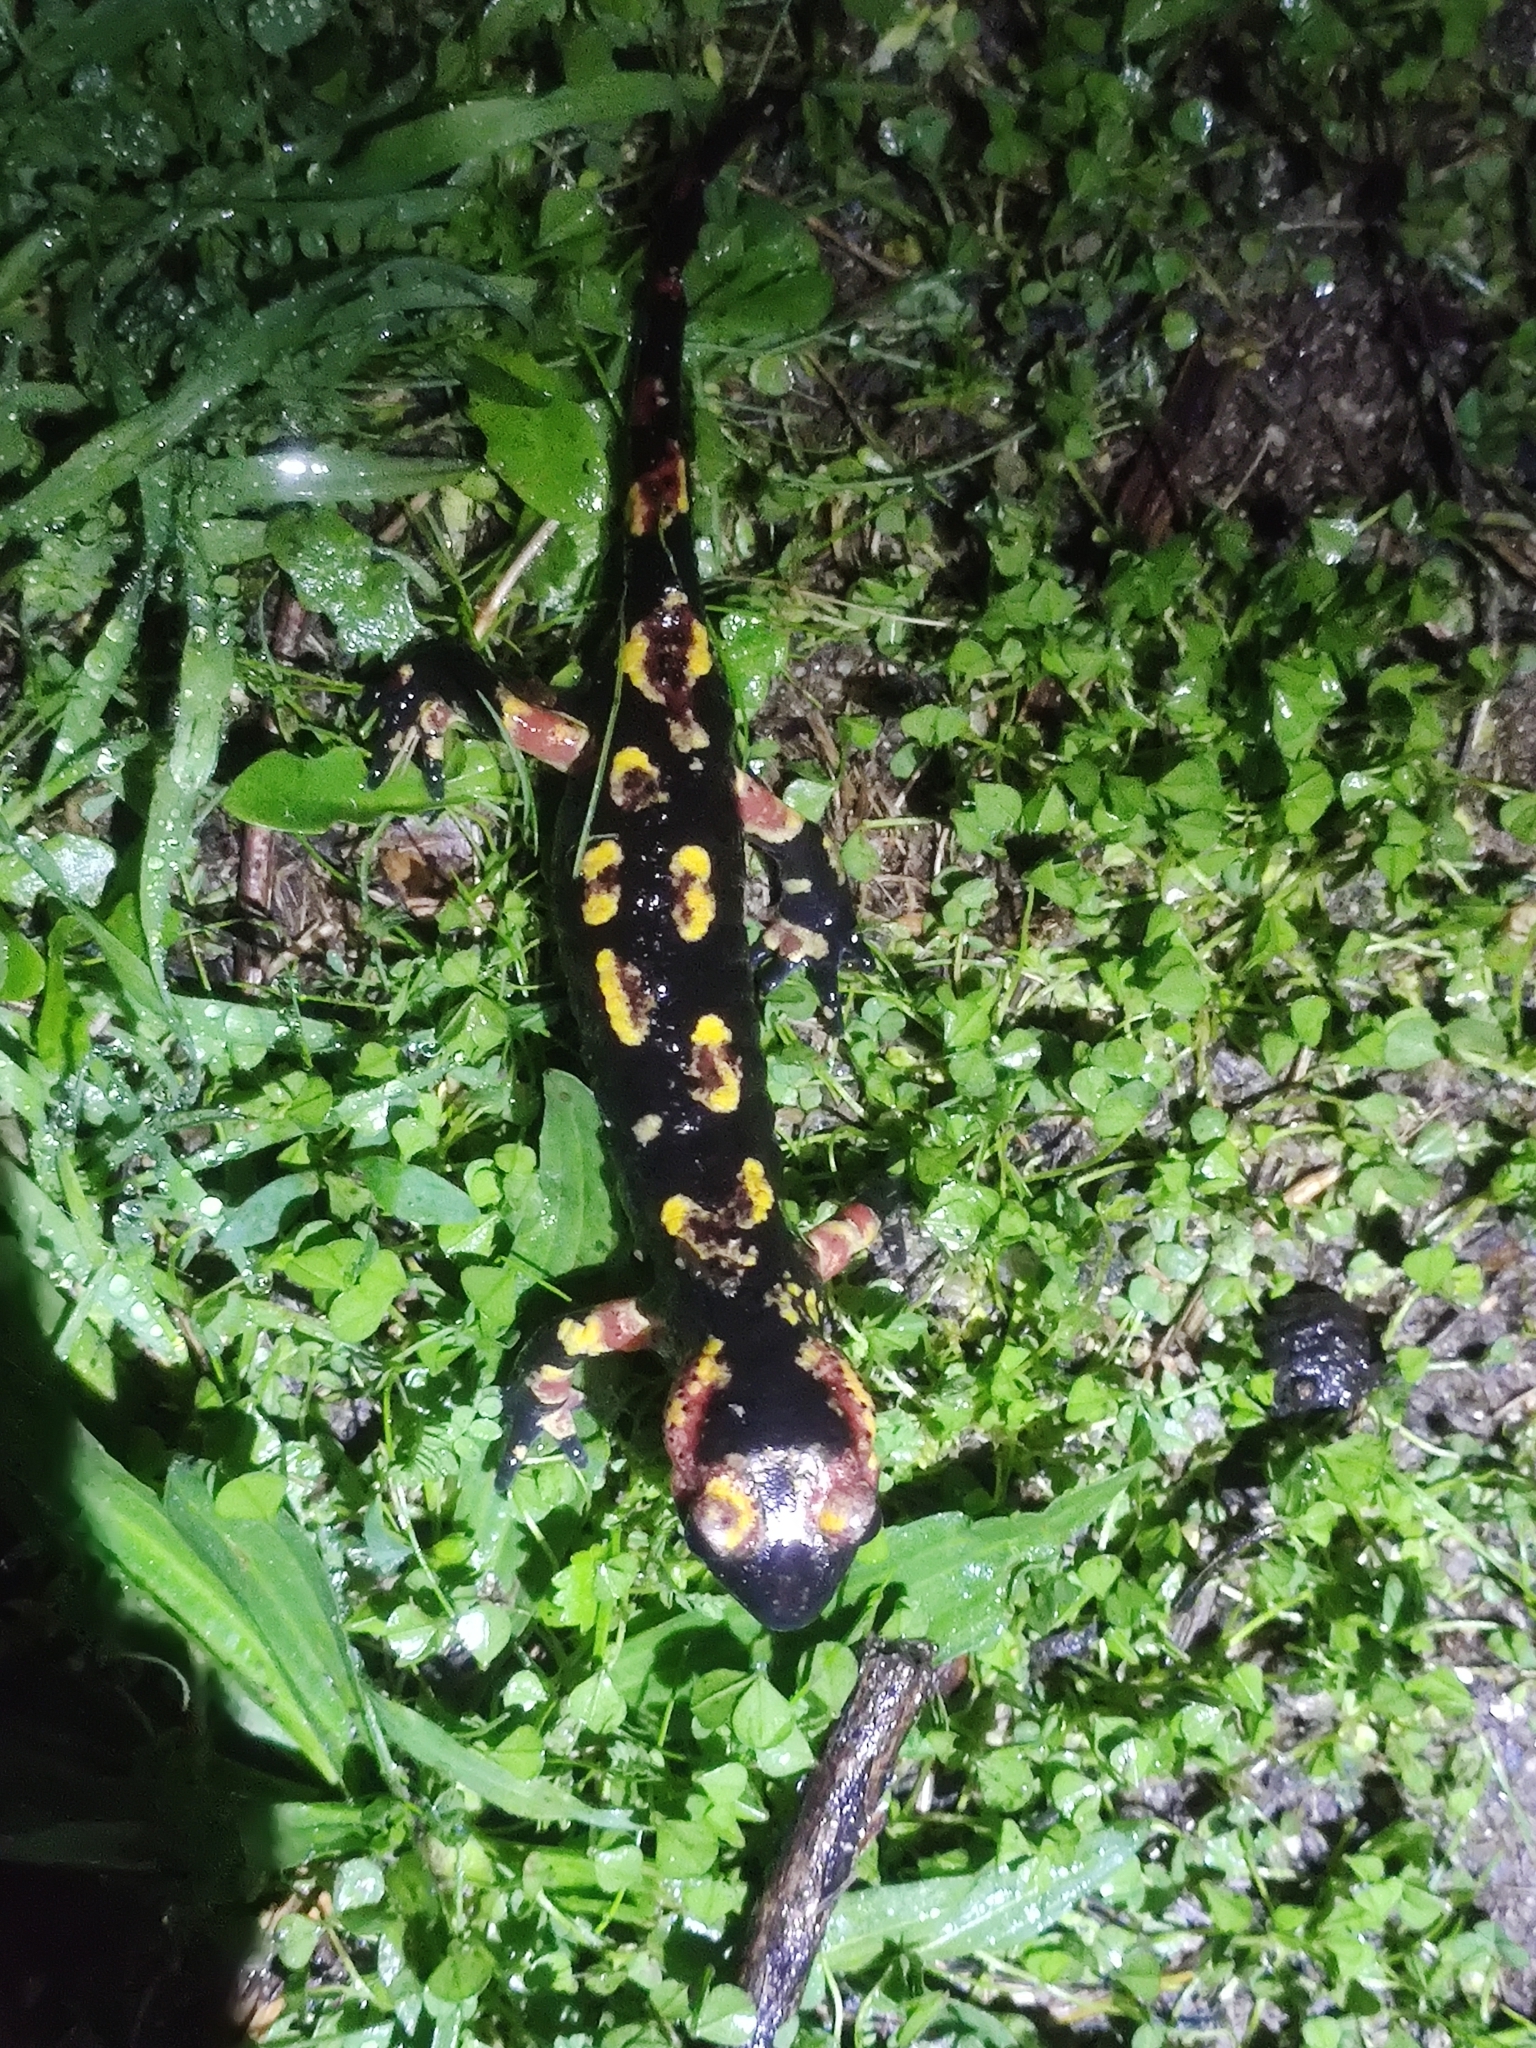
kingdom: Animalia
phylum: Chordata
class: Amphibia
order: Caudata
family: Salamandridae
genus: Salamandra
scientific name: Salamandra salamandra
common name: Fire salamander
